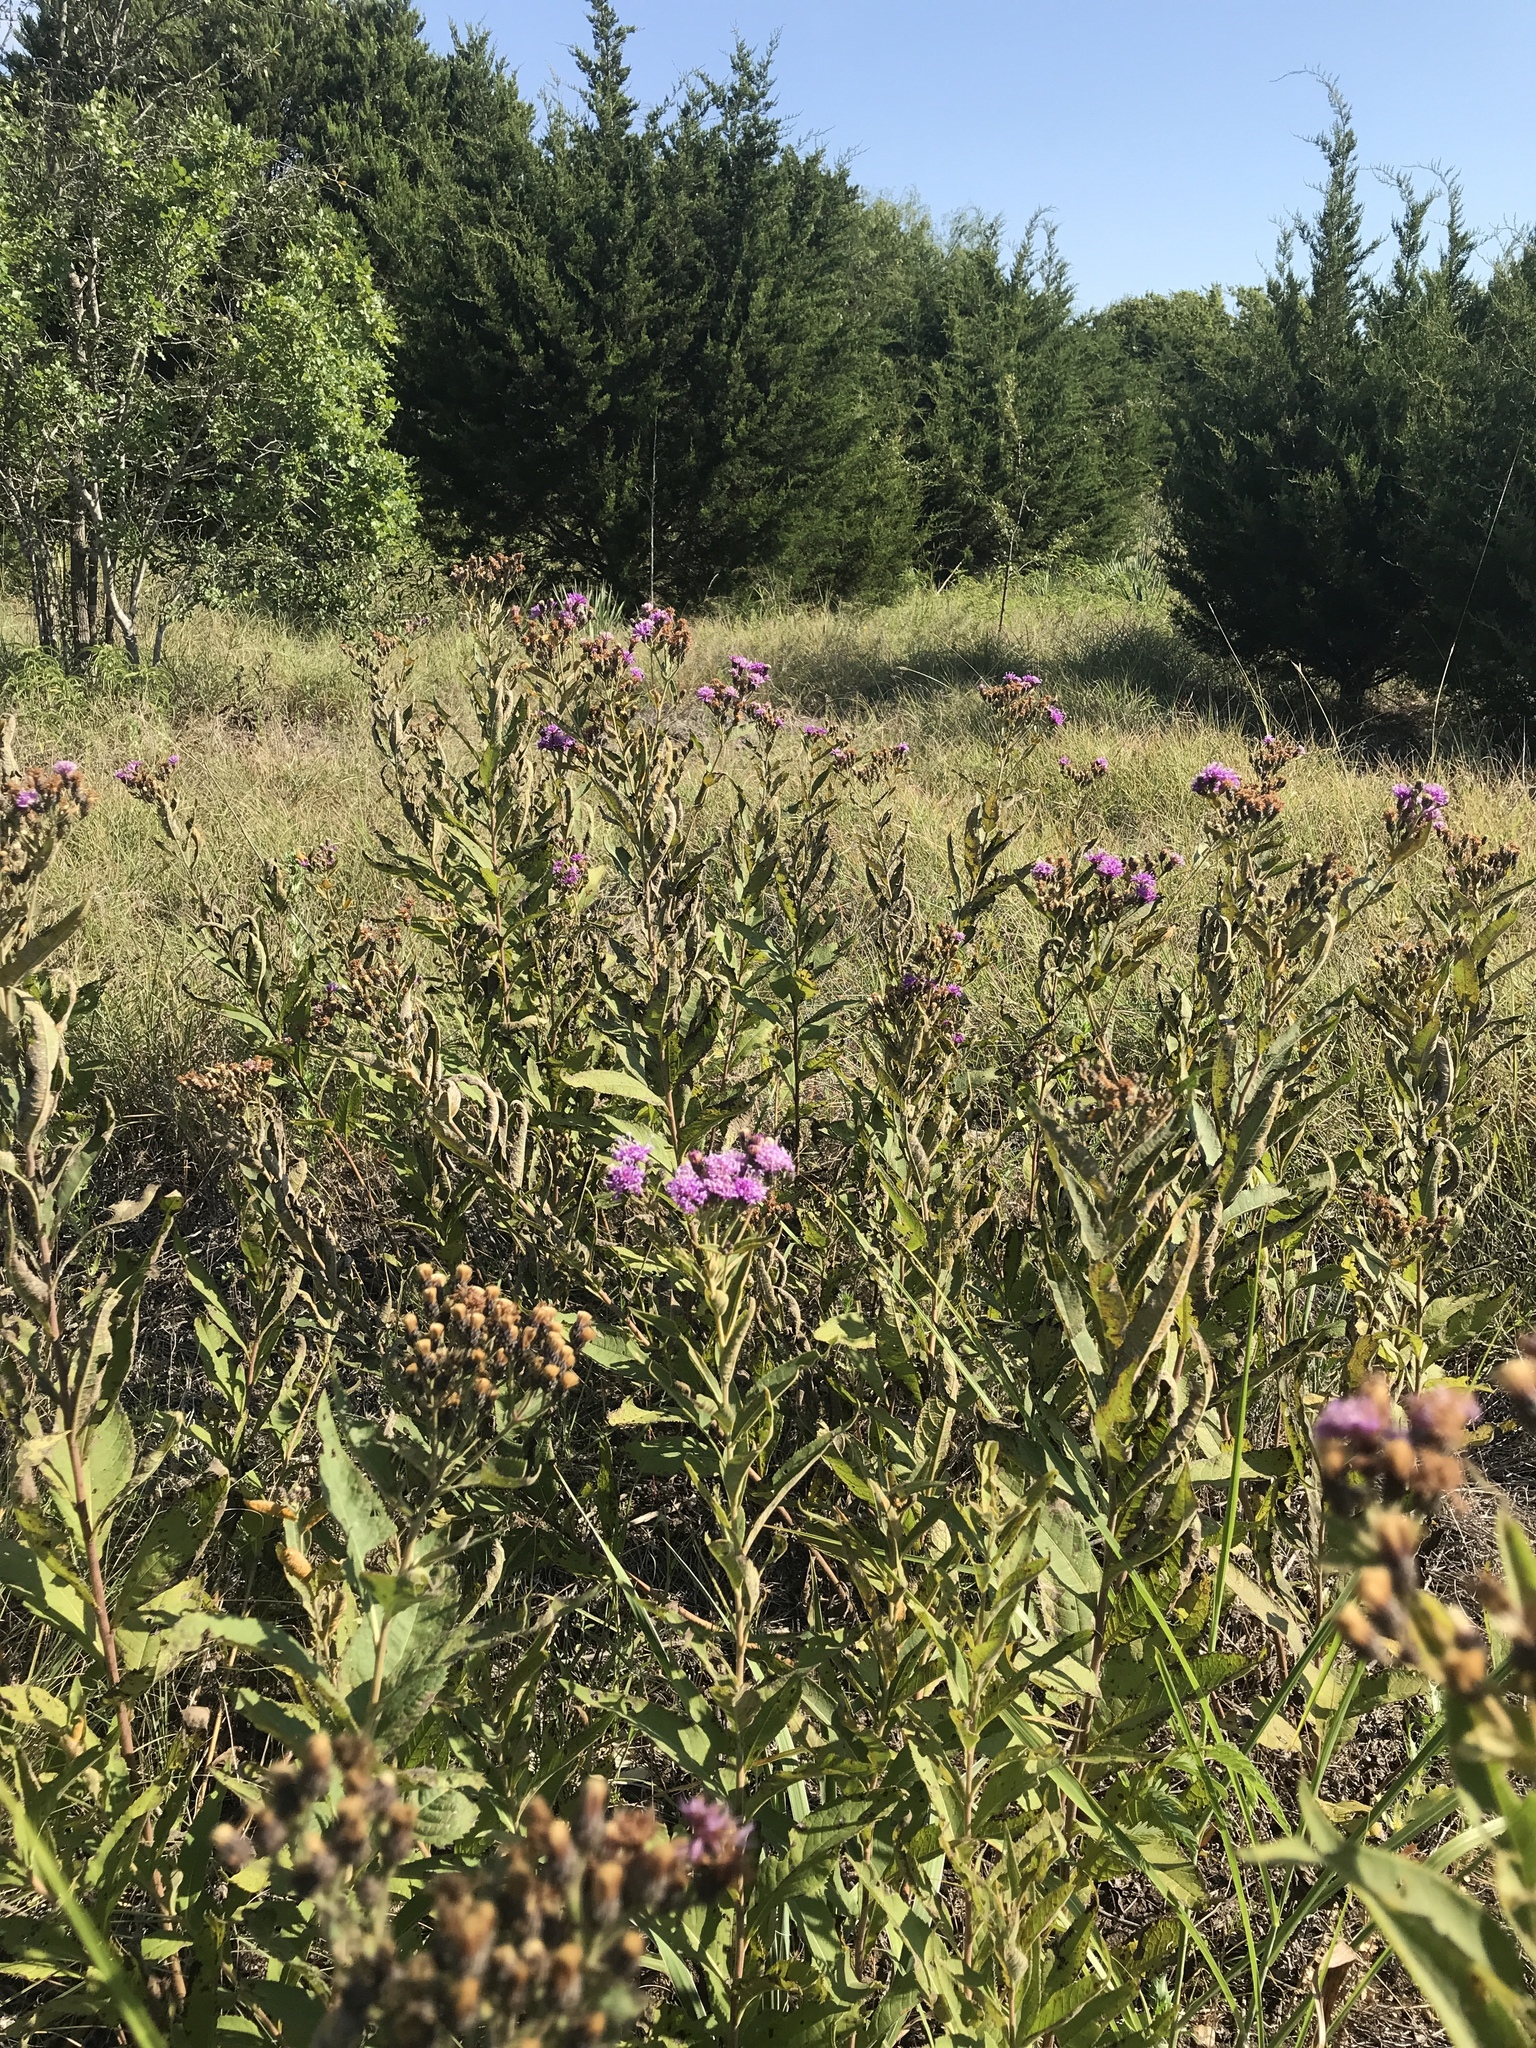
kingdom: Plantae
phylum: Tracheophyta
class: Magnoliopsida
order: Asterales
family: Asteraceae
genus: Vernonia
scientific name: Vernonia baldwinii
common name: Western ironweed
